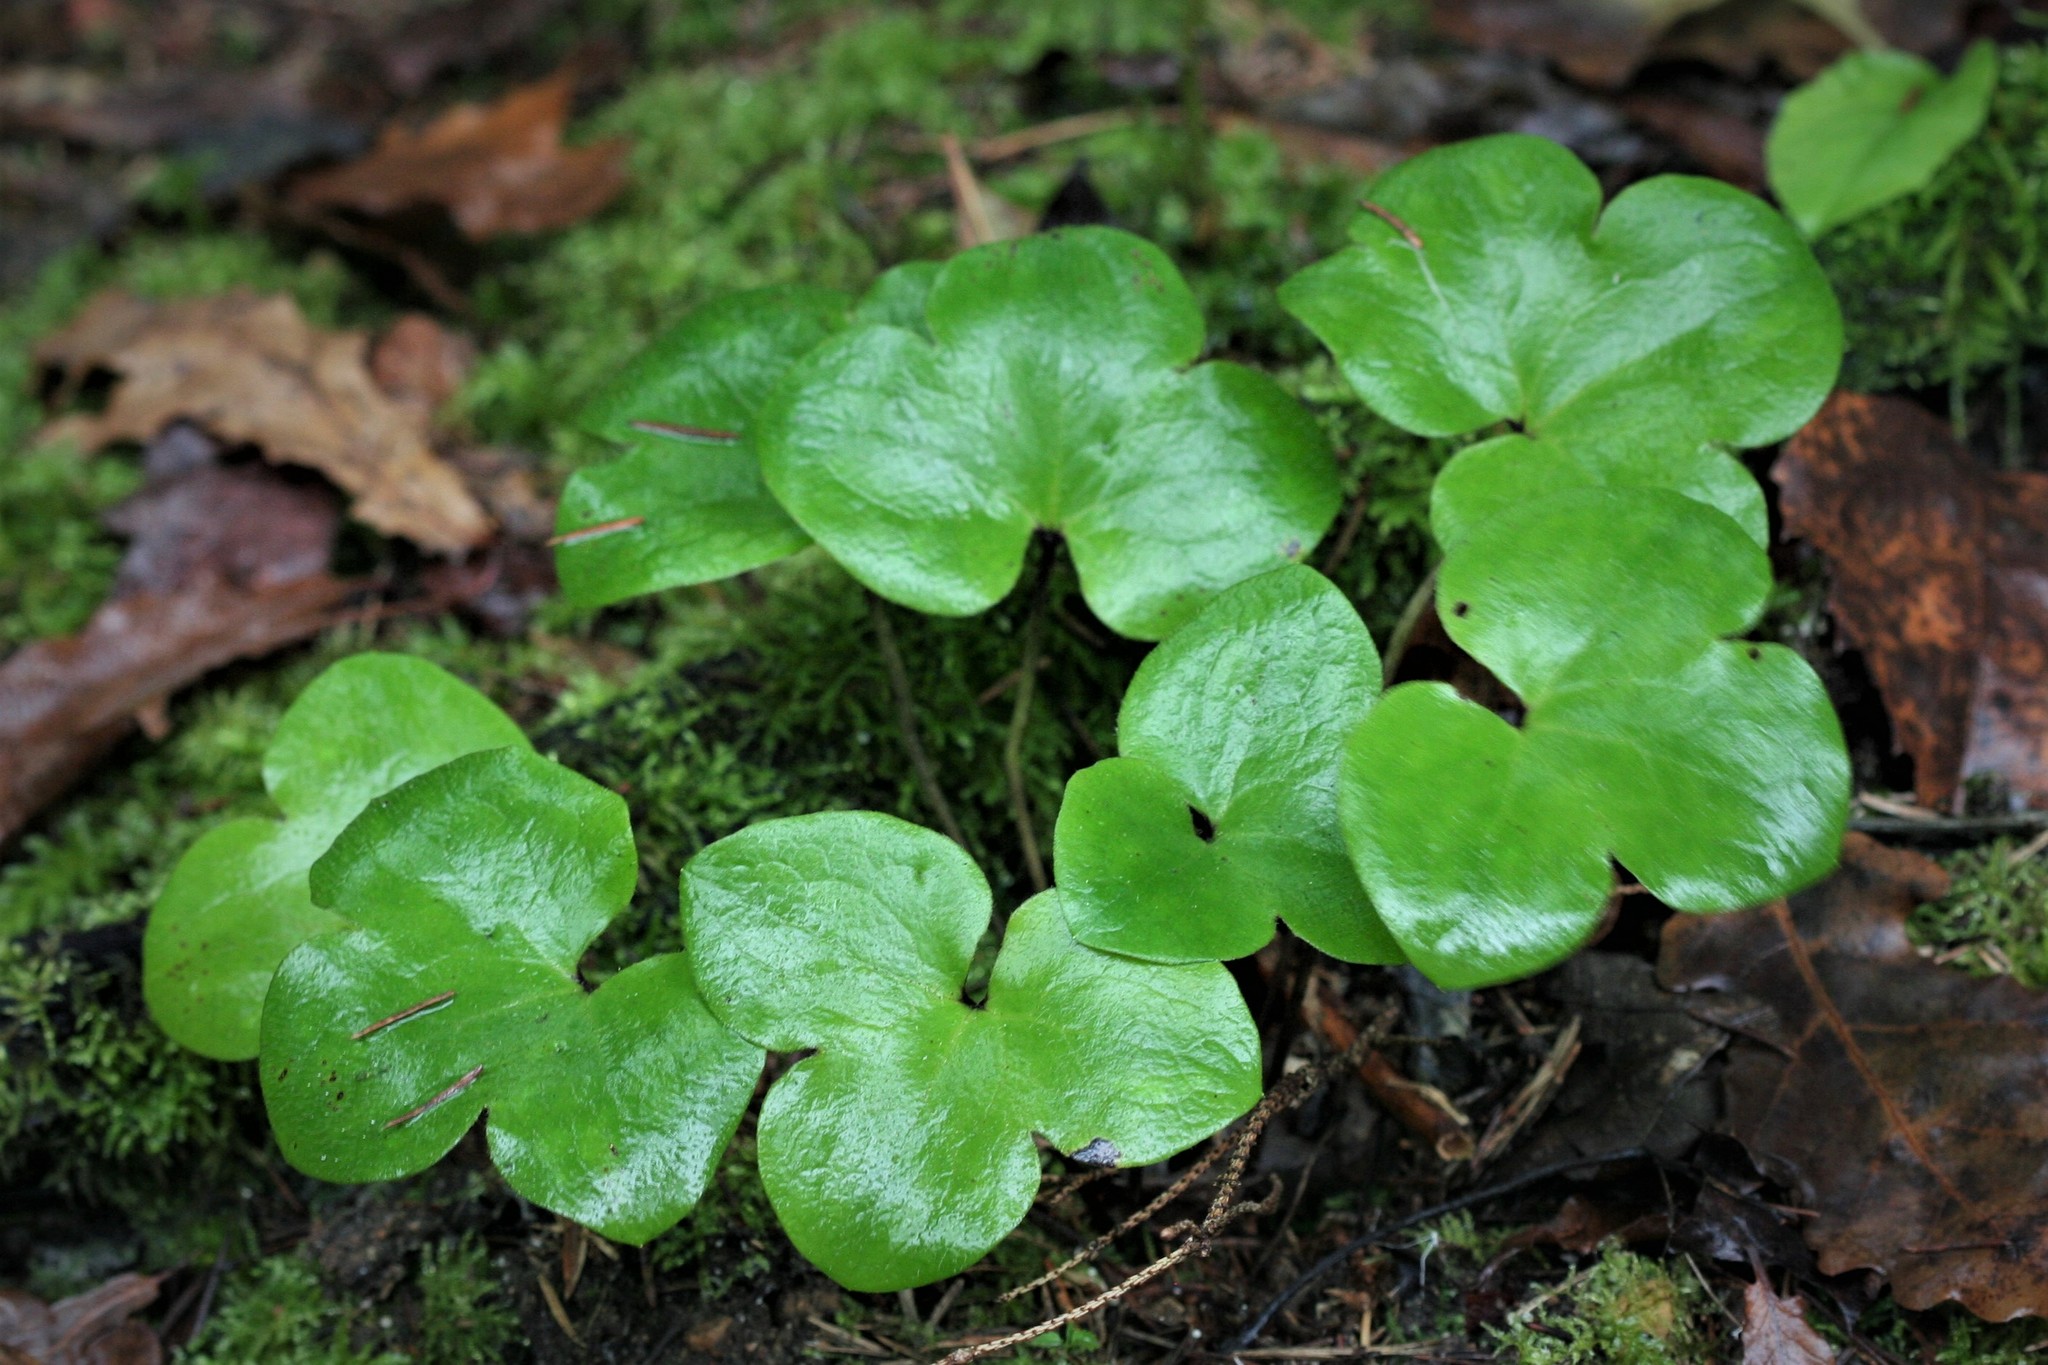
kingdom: Plantae
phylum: Tracheophyta
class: Magnoliopsida
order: Ranunculales
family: Ranunculaceae
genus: Hepatica
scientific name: Hepatica nobilis
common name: Liverleaf
